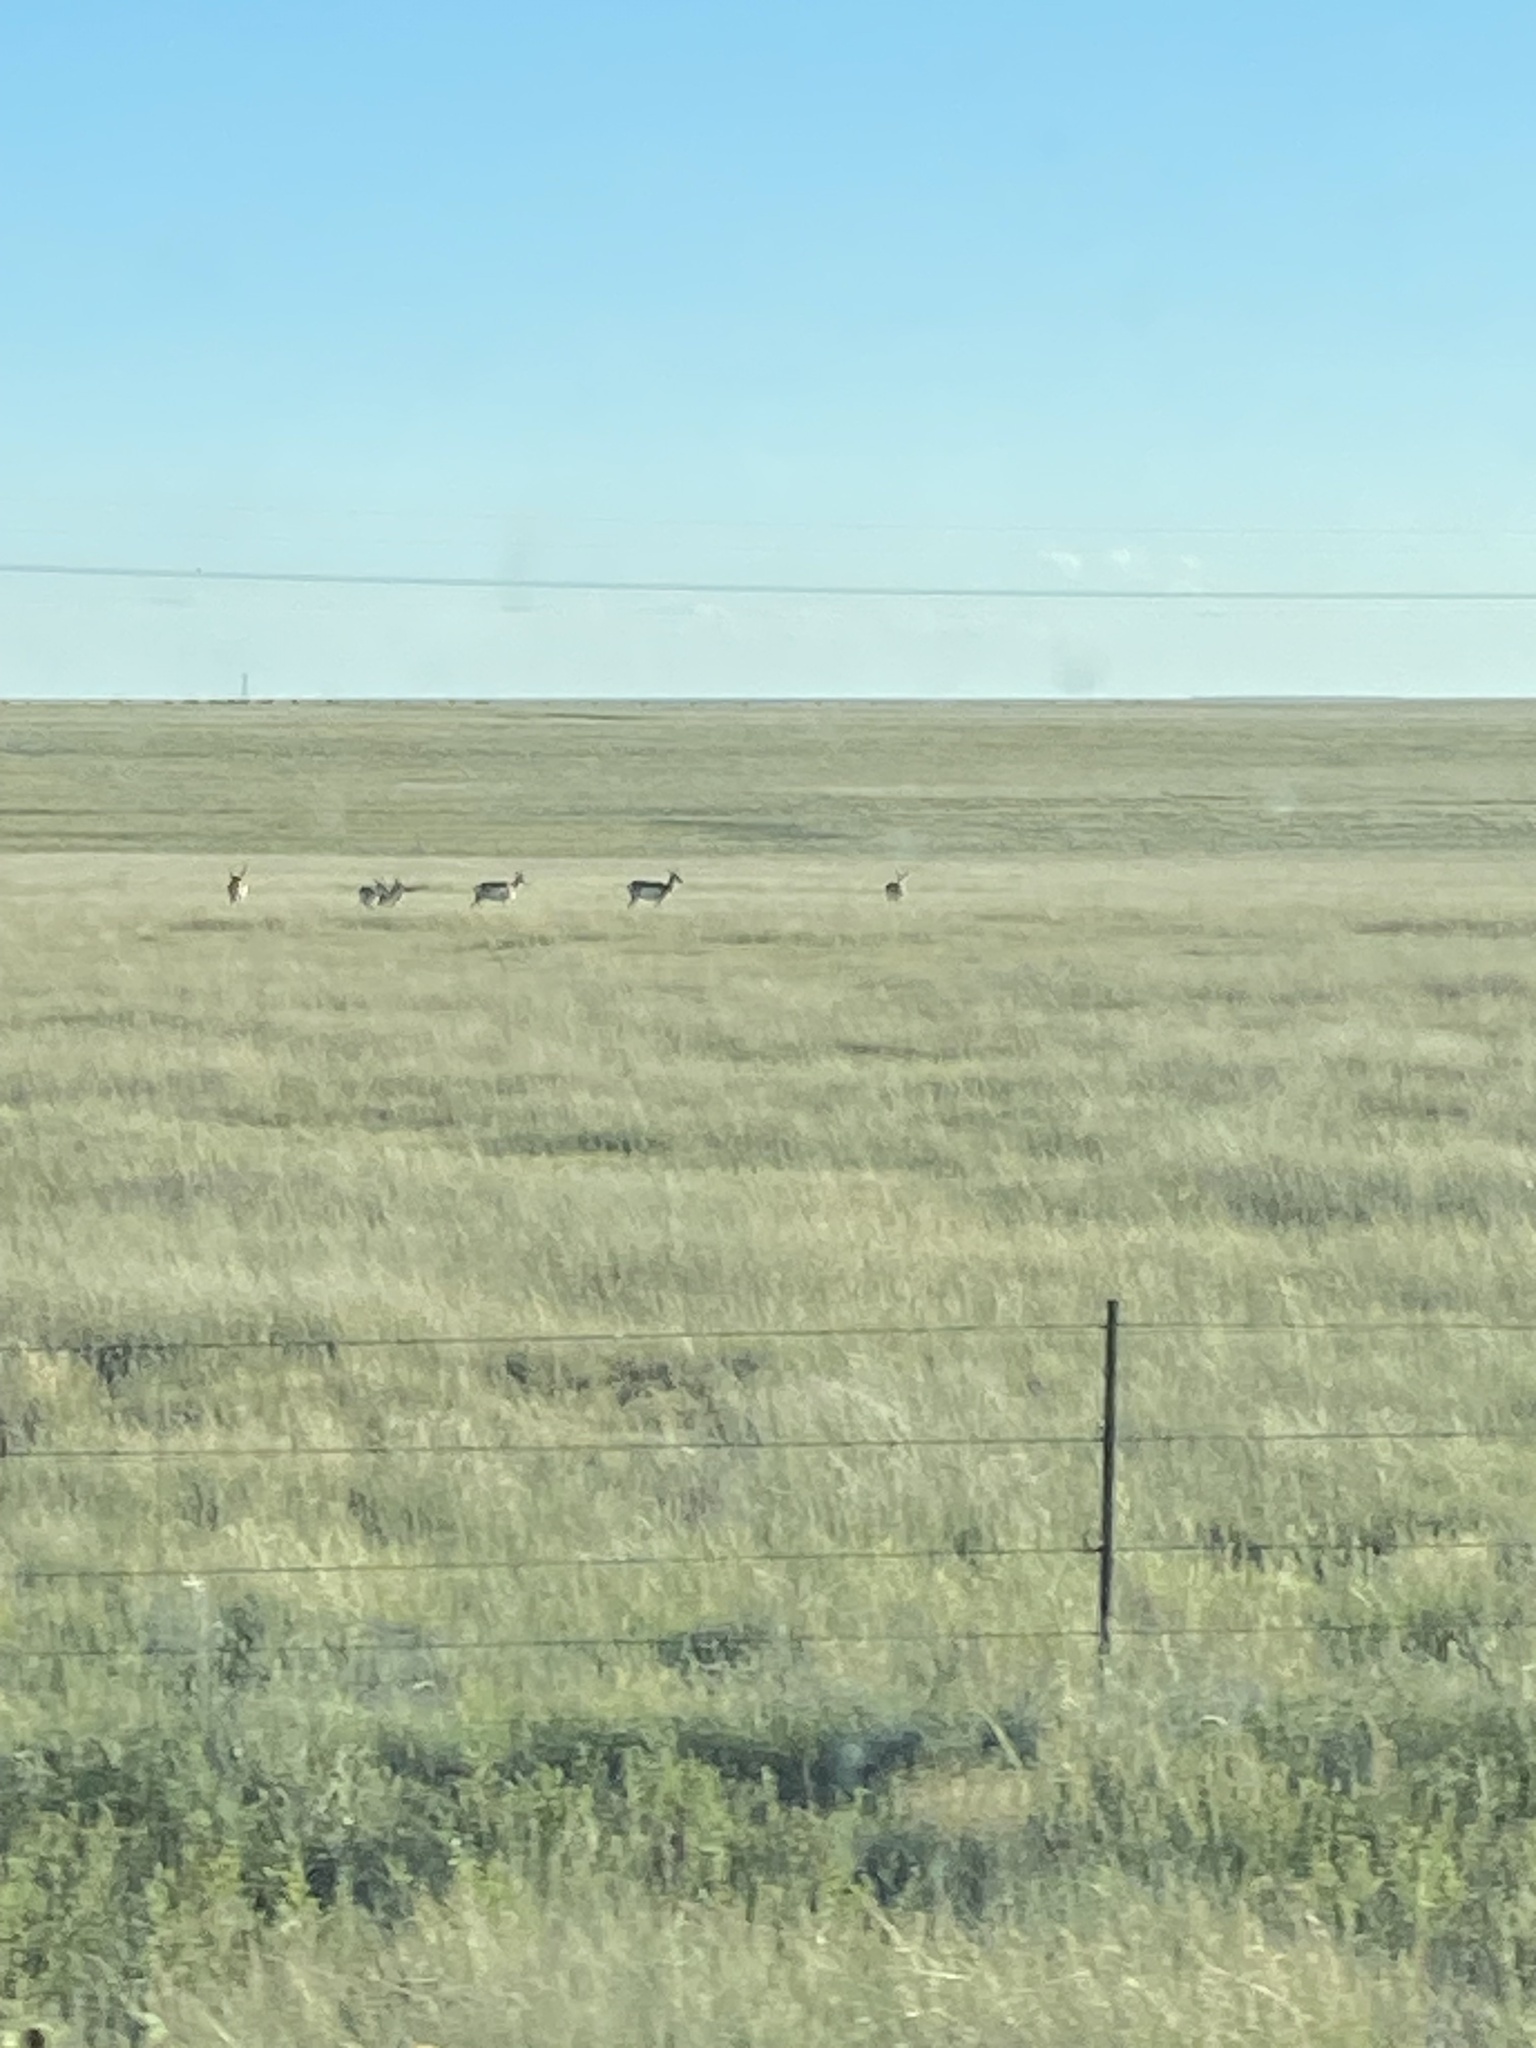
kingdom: Animalia
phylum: Chordata
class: Mammalia
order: Artiodactyla
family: Antilocapridae
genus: Antilocapra
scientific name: Antilocapra americana
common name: Pronghorn
